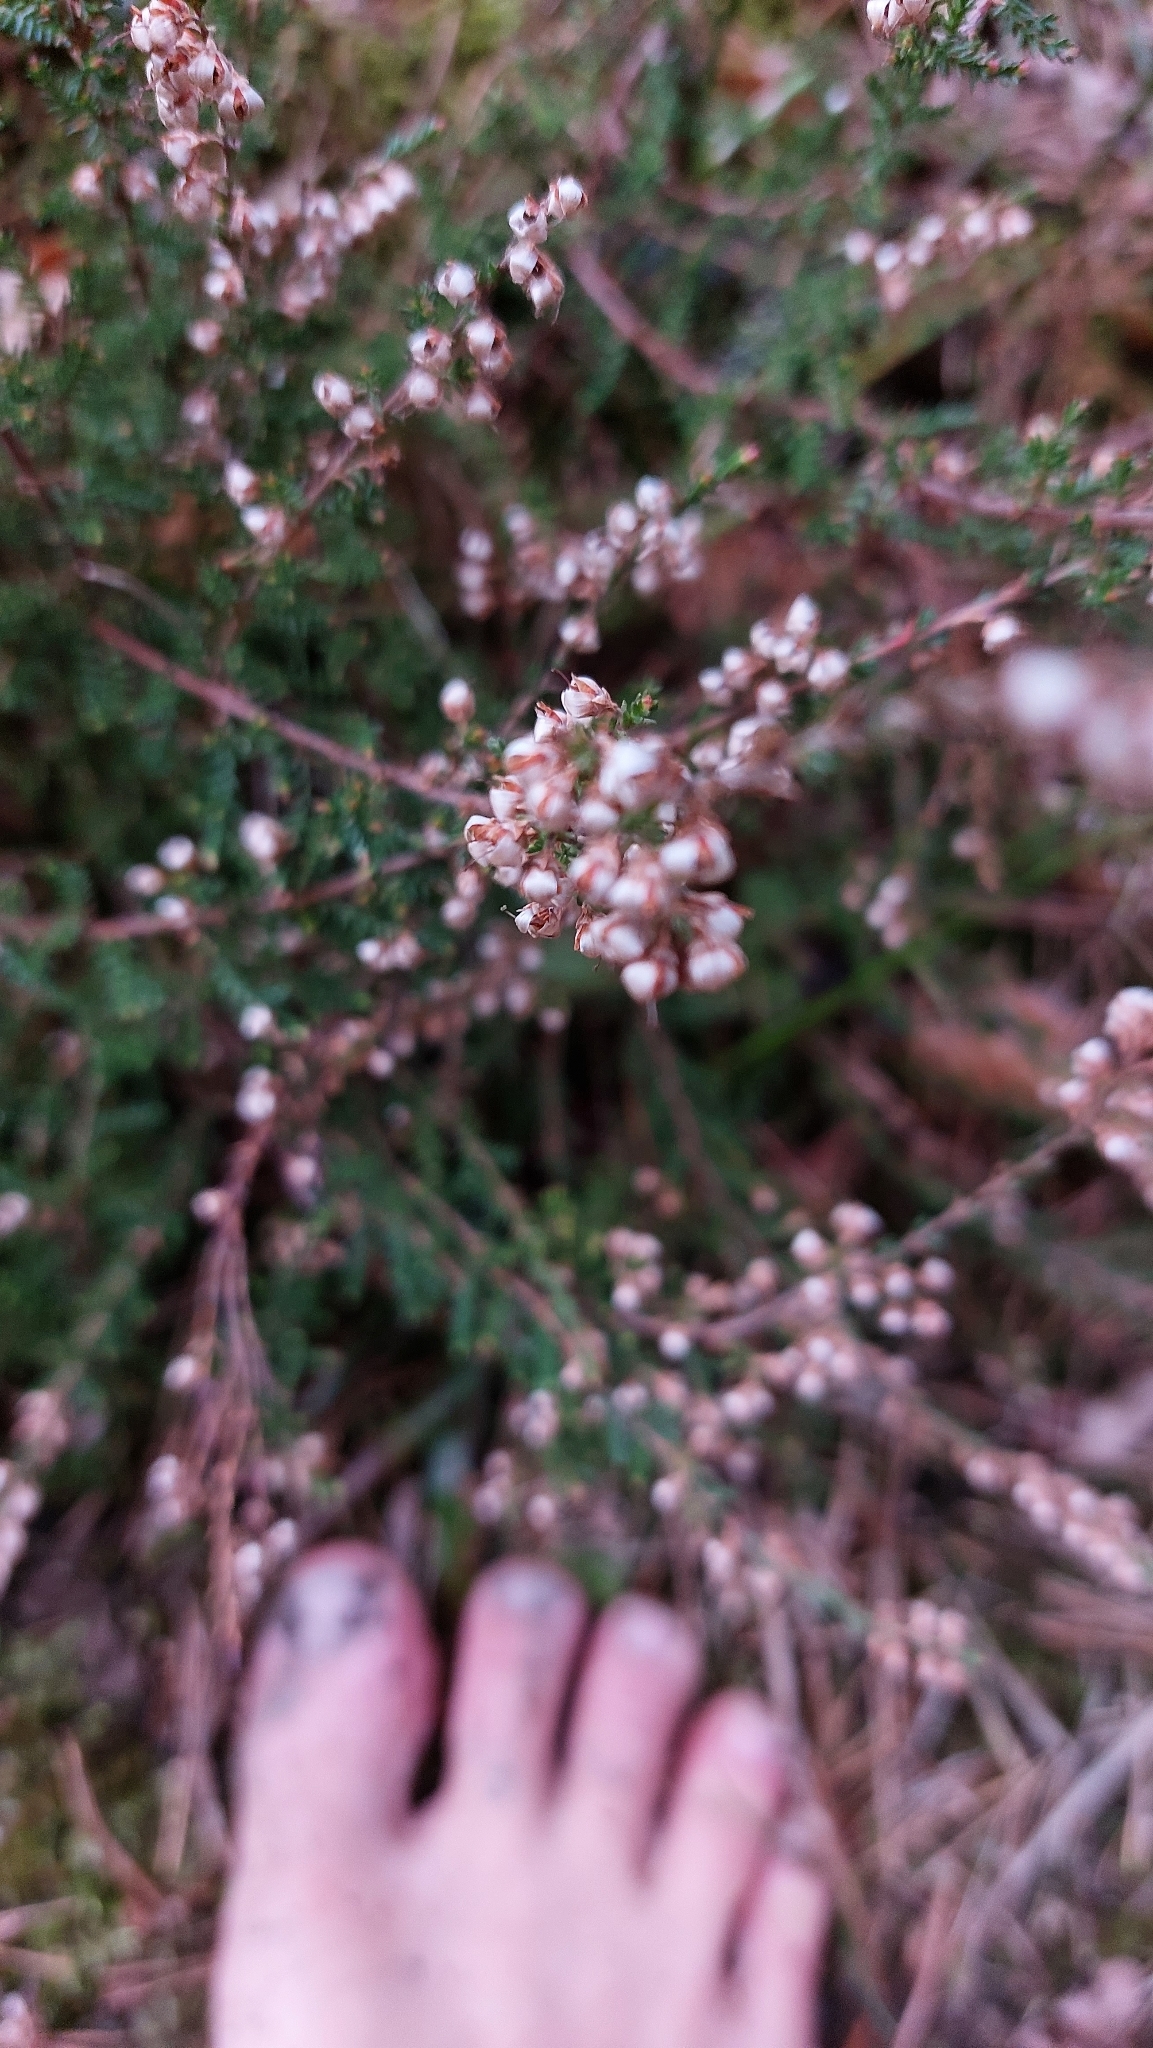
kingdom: Plantae
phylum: Tracheophyta
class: Magnoliopsida
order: Ericales
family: Ericaceae
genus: Calluna
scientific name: Calluna vulgaris
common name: Heather
